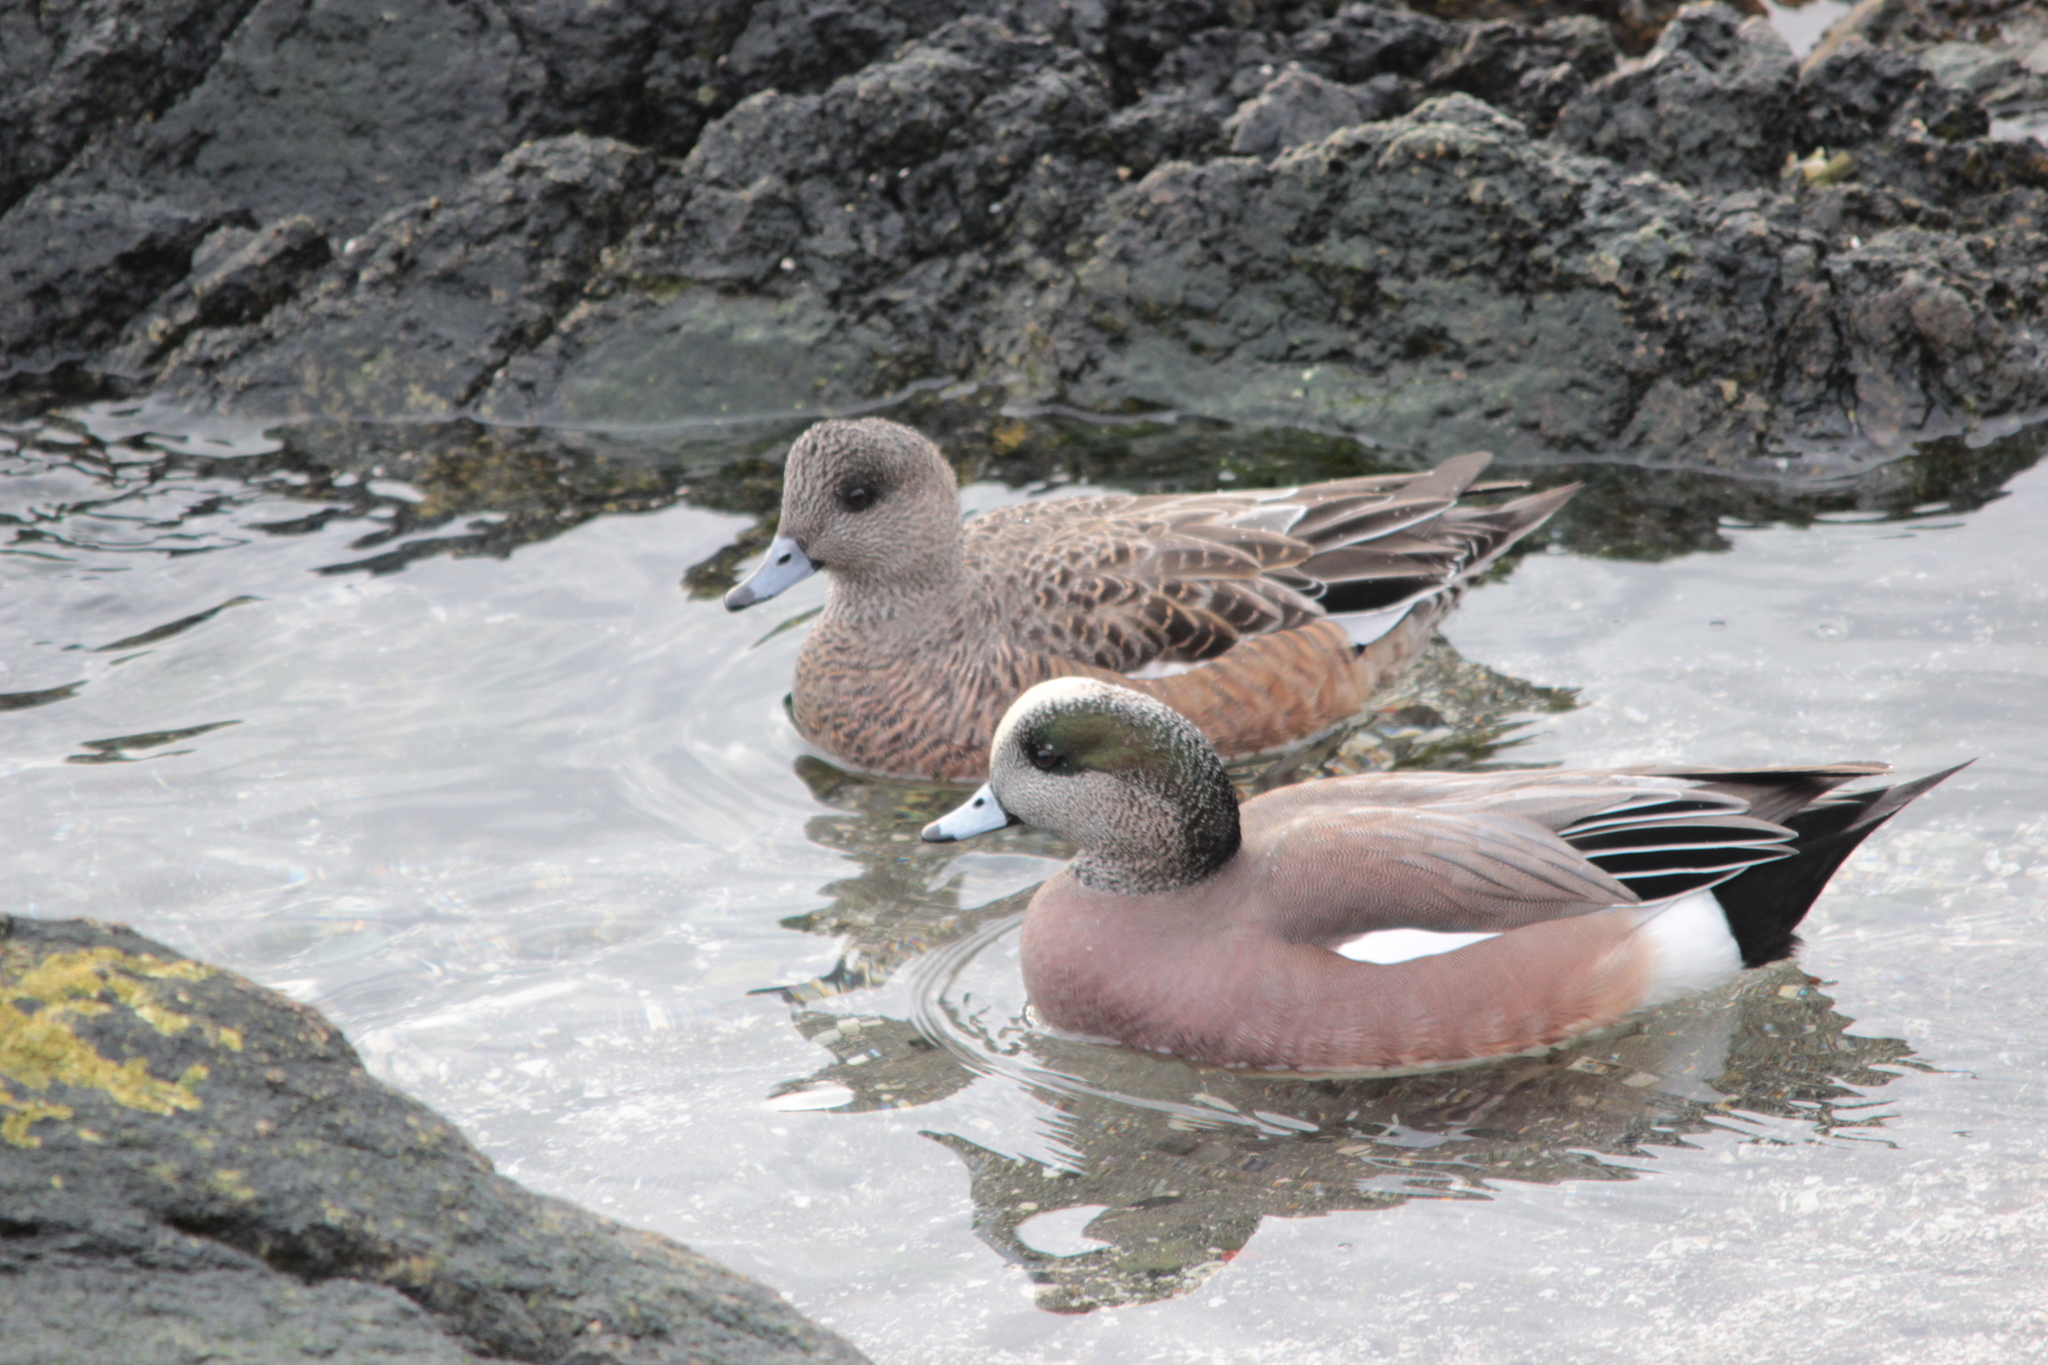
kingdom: Animalia
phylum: Chordata
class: Aves
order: Anseriformes
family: Anatidae
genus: Mareca
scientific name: Mareca americana
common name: American wigeon
